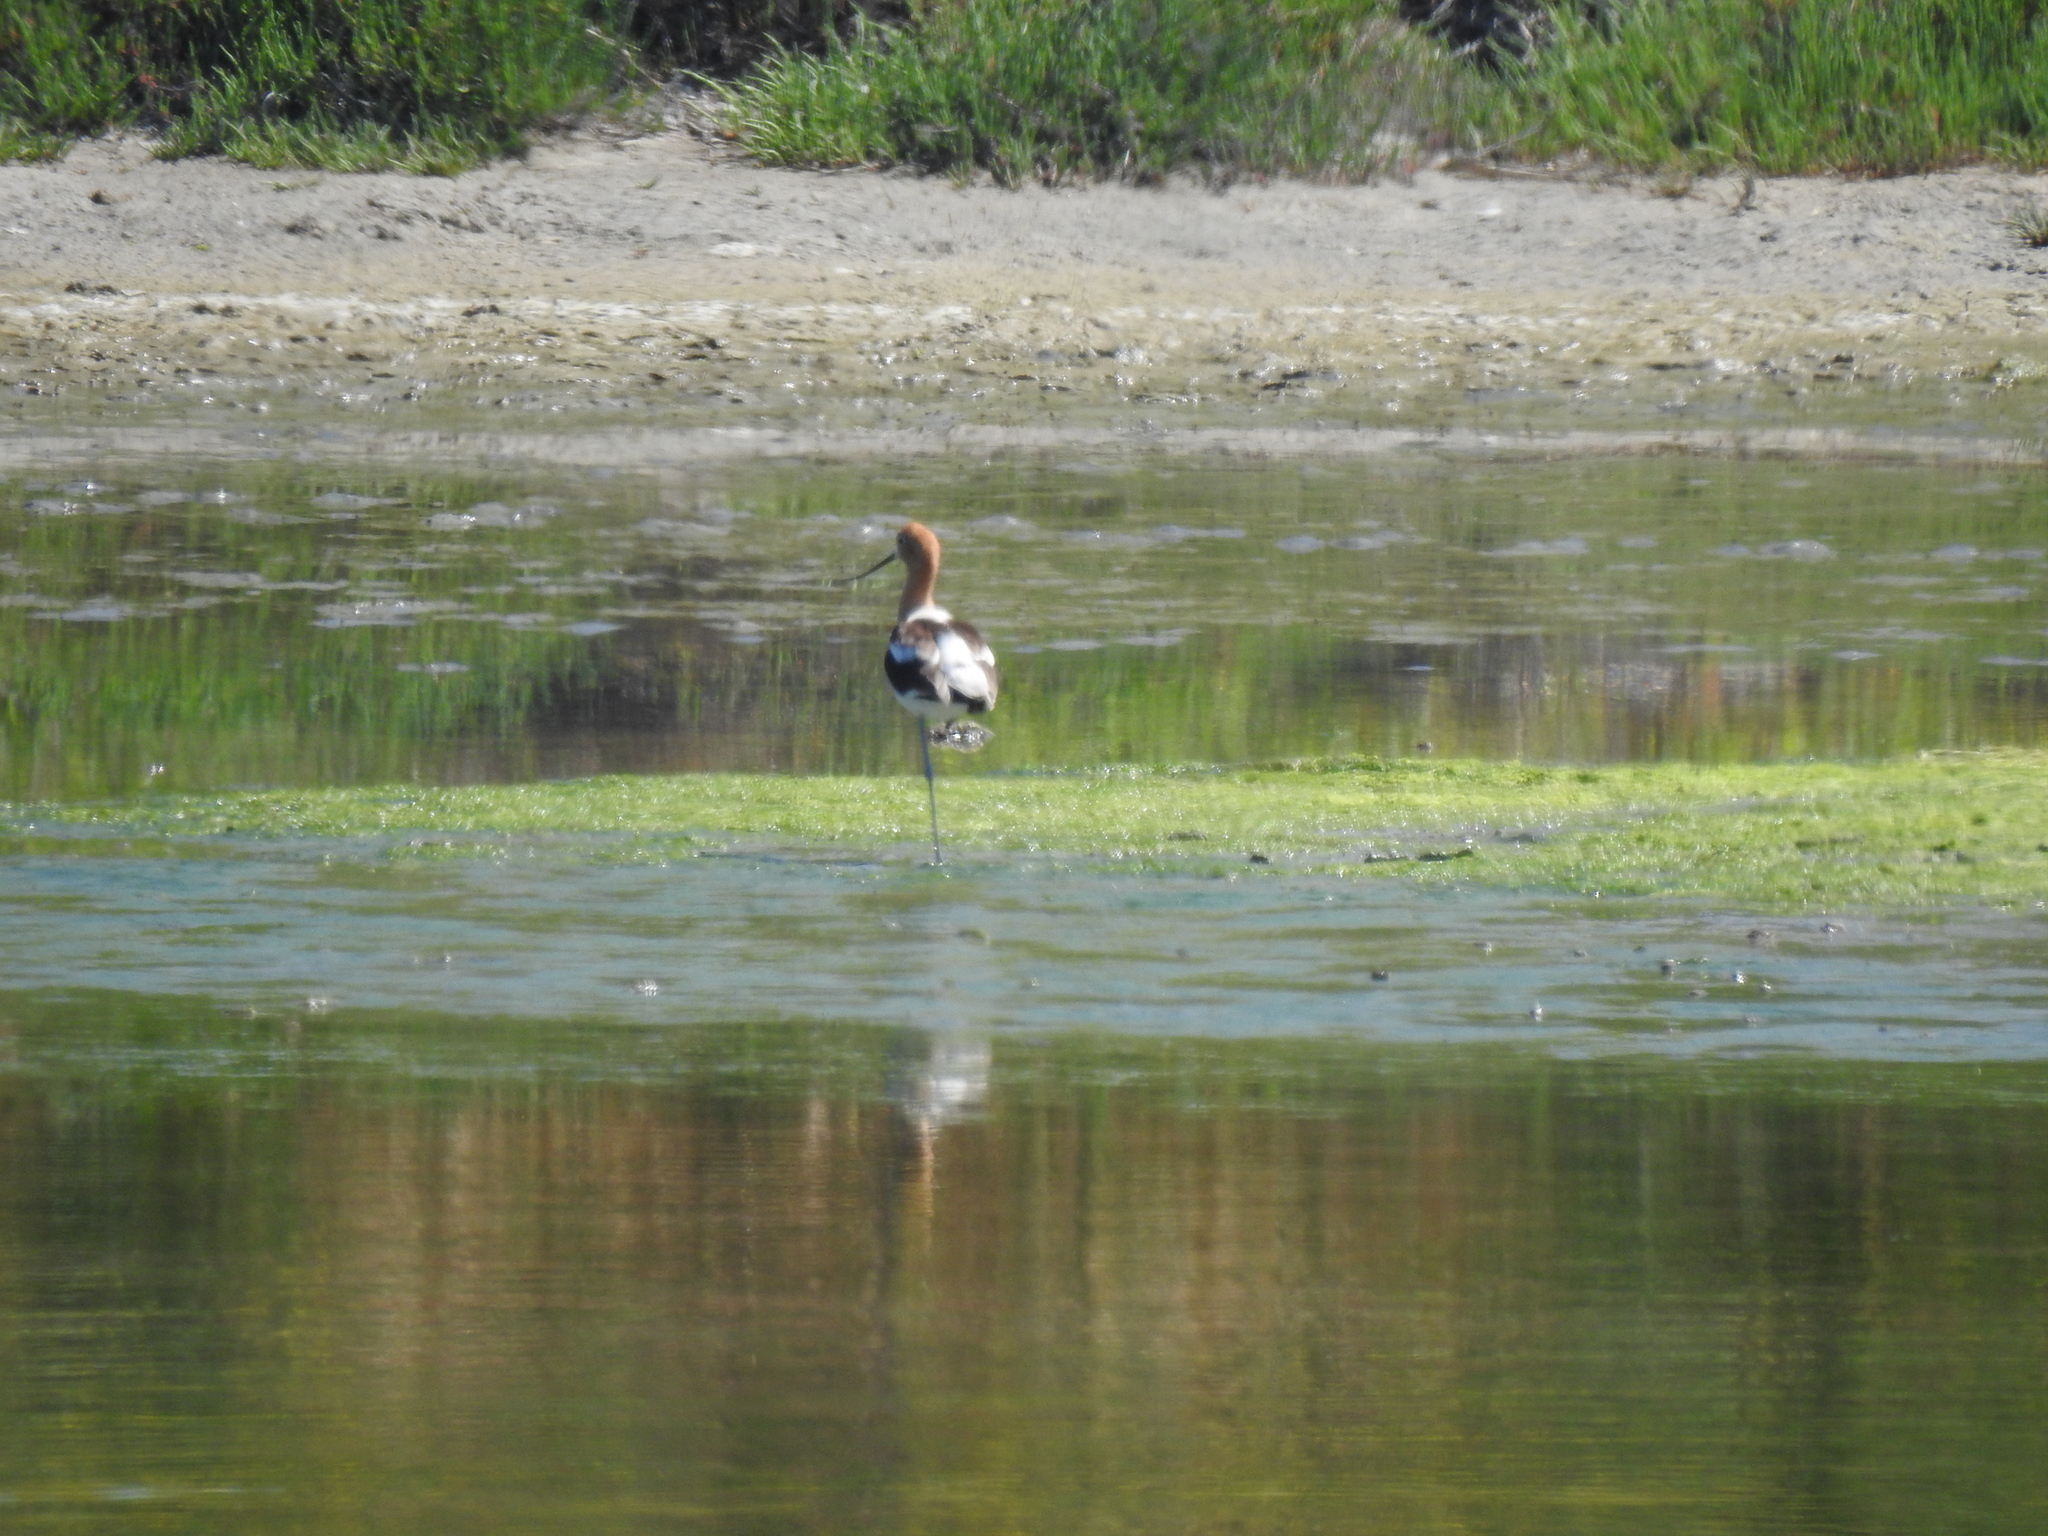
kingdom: Animalia
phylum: Chordata
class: Aves
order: Charadriiformes
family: Recurvirostridae
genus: Recurvirostra
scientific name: Recurvirostra americana
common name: American avocet
